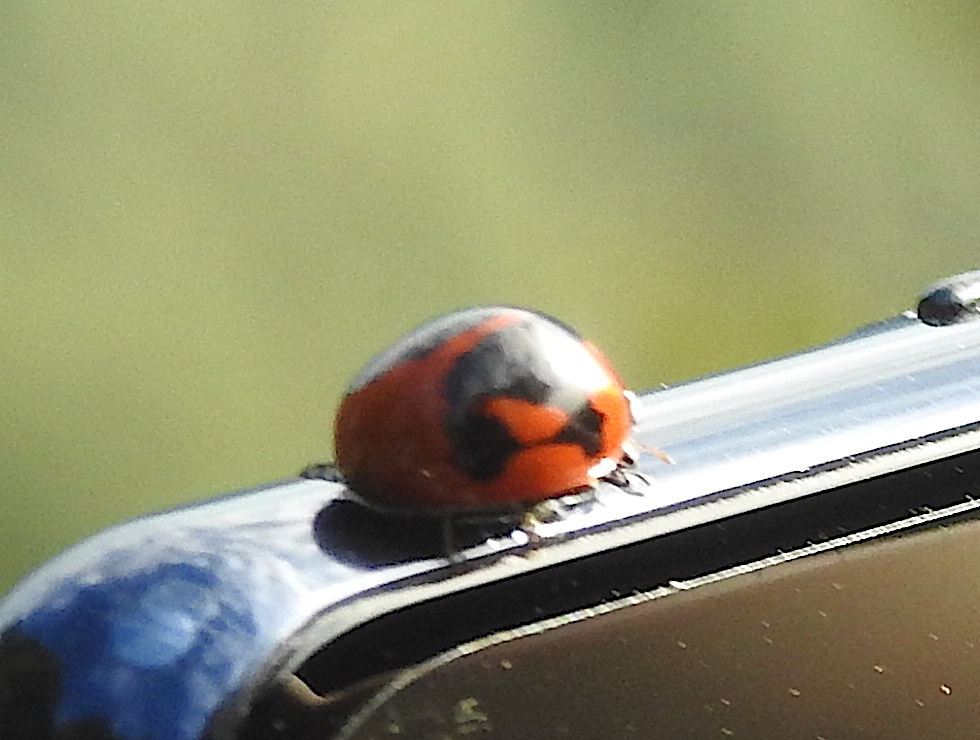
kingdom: Animalia
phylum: Arthropoda
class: Insecta
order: Coleoptera
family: Coccinellidae
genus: Coccinella
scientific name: Coccinella septempunctata
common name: Sevenspotted lady beetle
